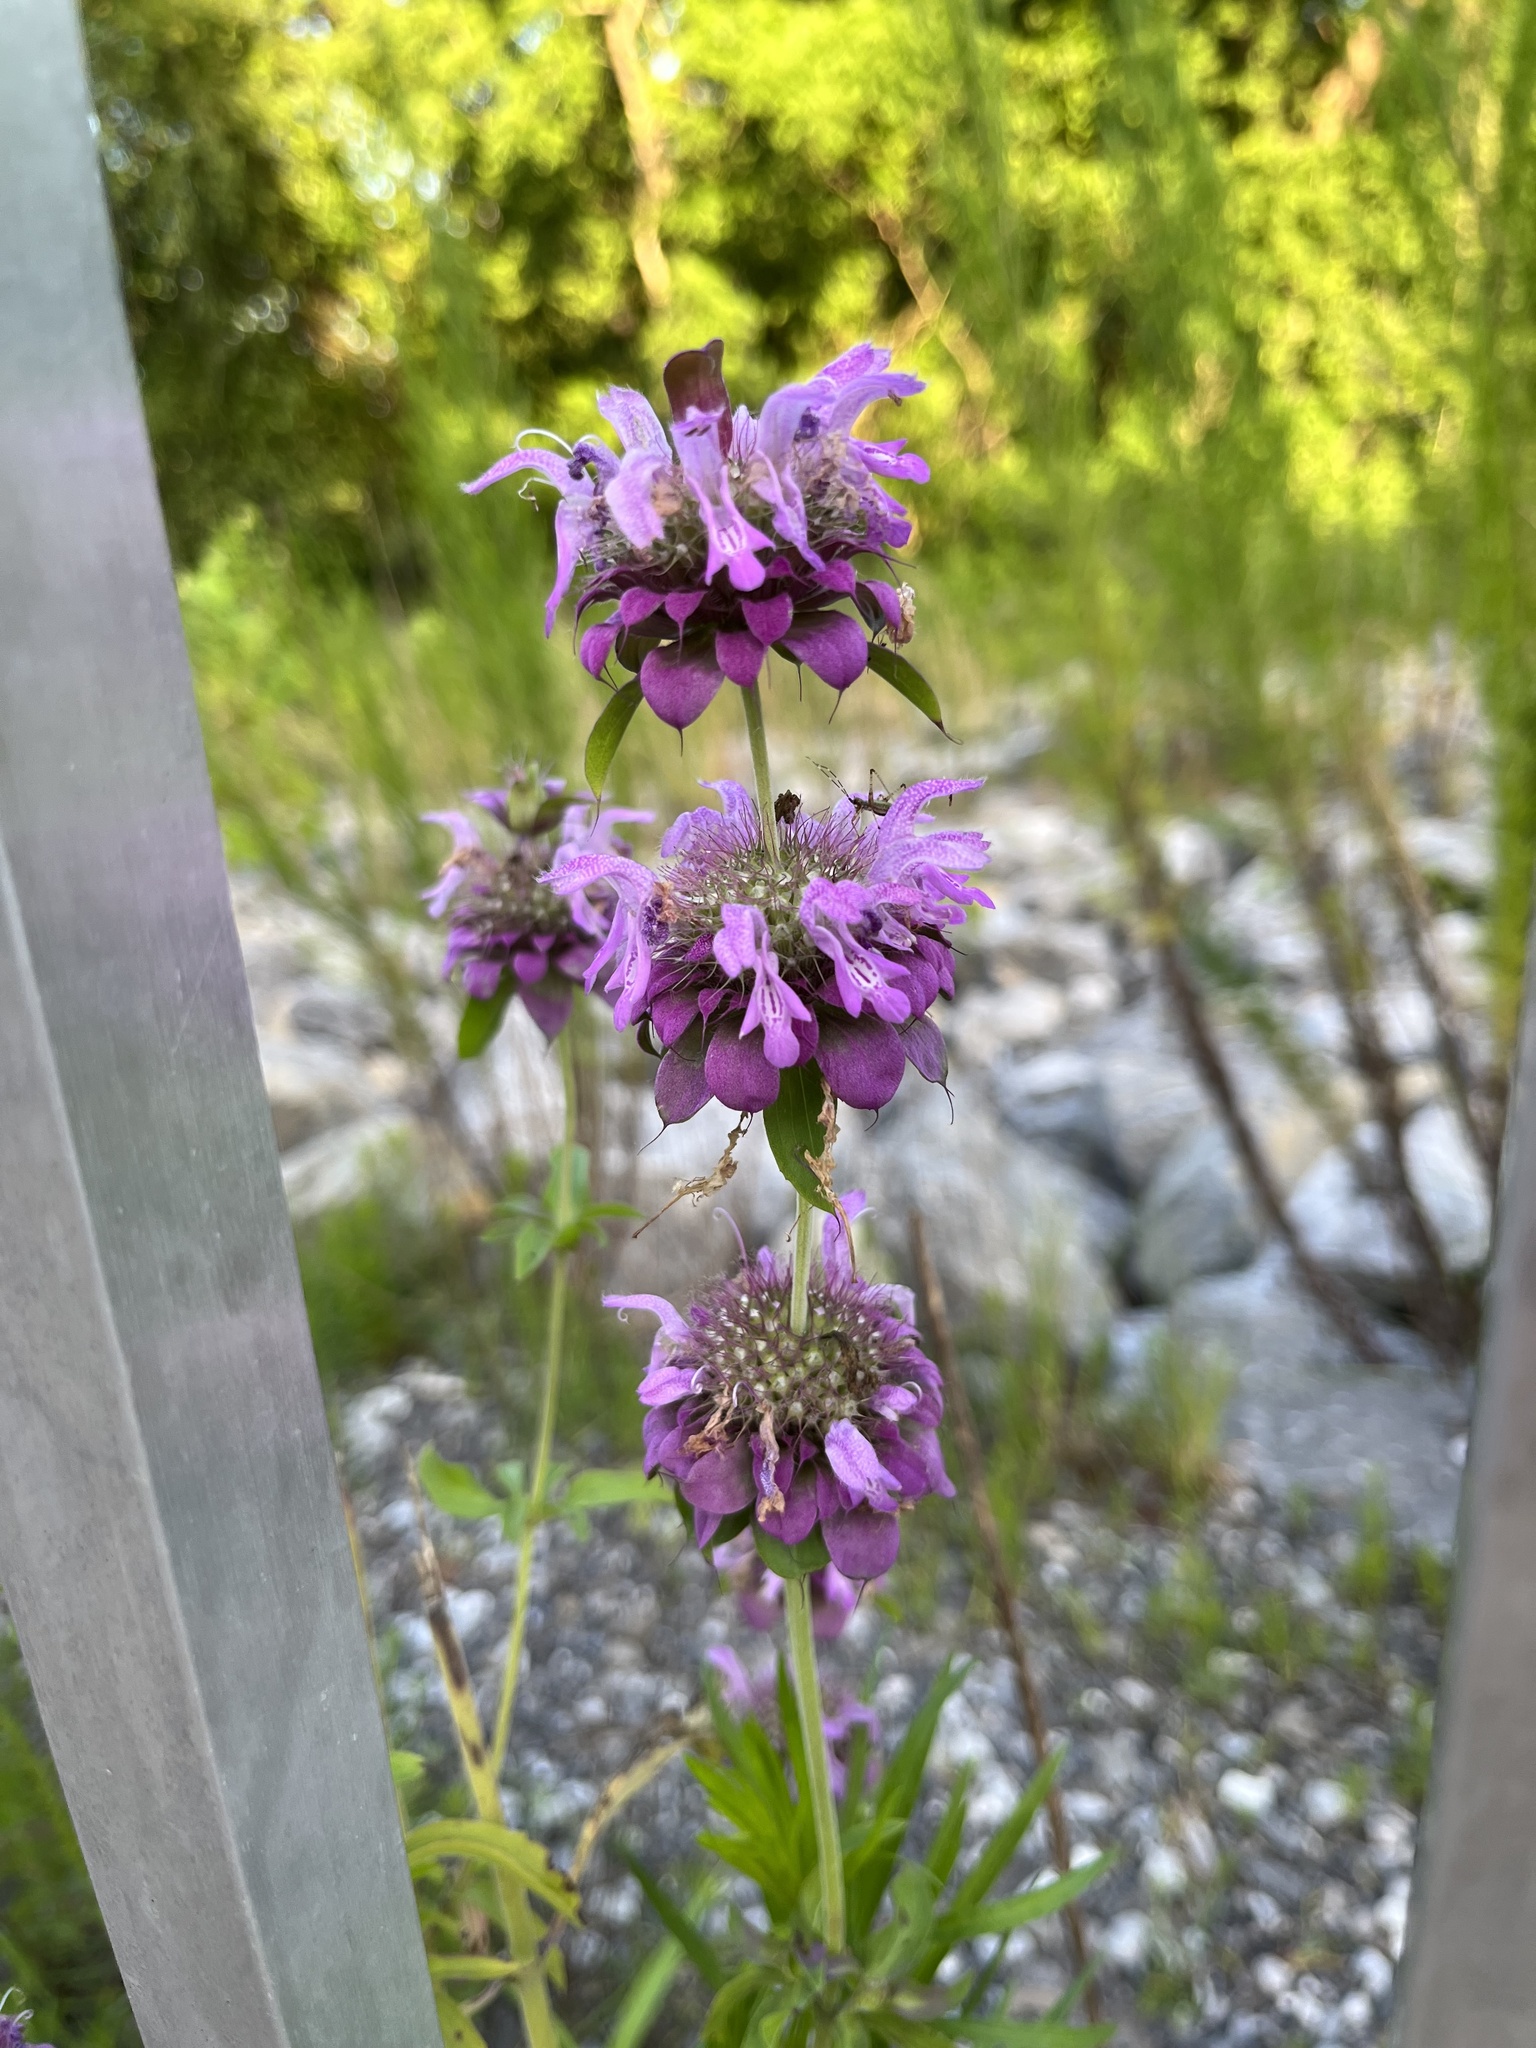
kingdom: Plantae
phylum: Tracheophyta
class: Magnoliopsida
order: Lamiales
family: Lamiaceae
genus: Monarda
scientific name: Monarda citriodora
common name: Lemon beebalm
